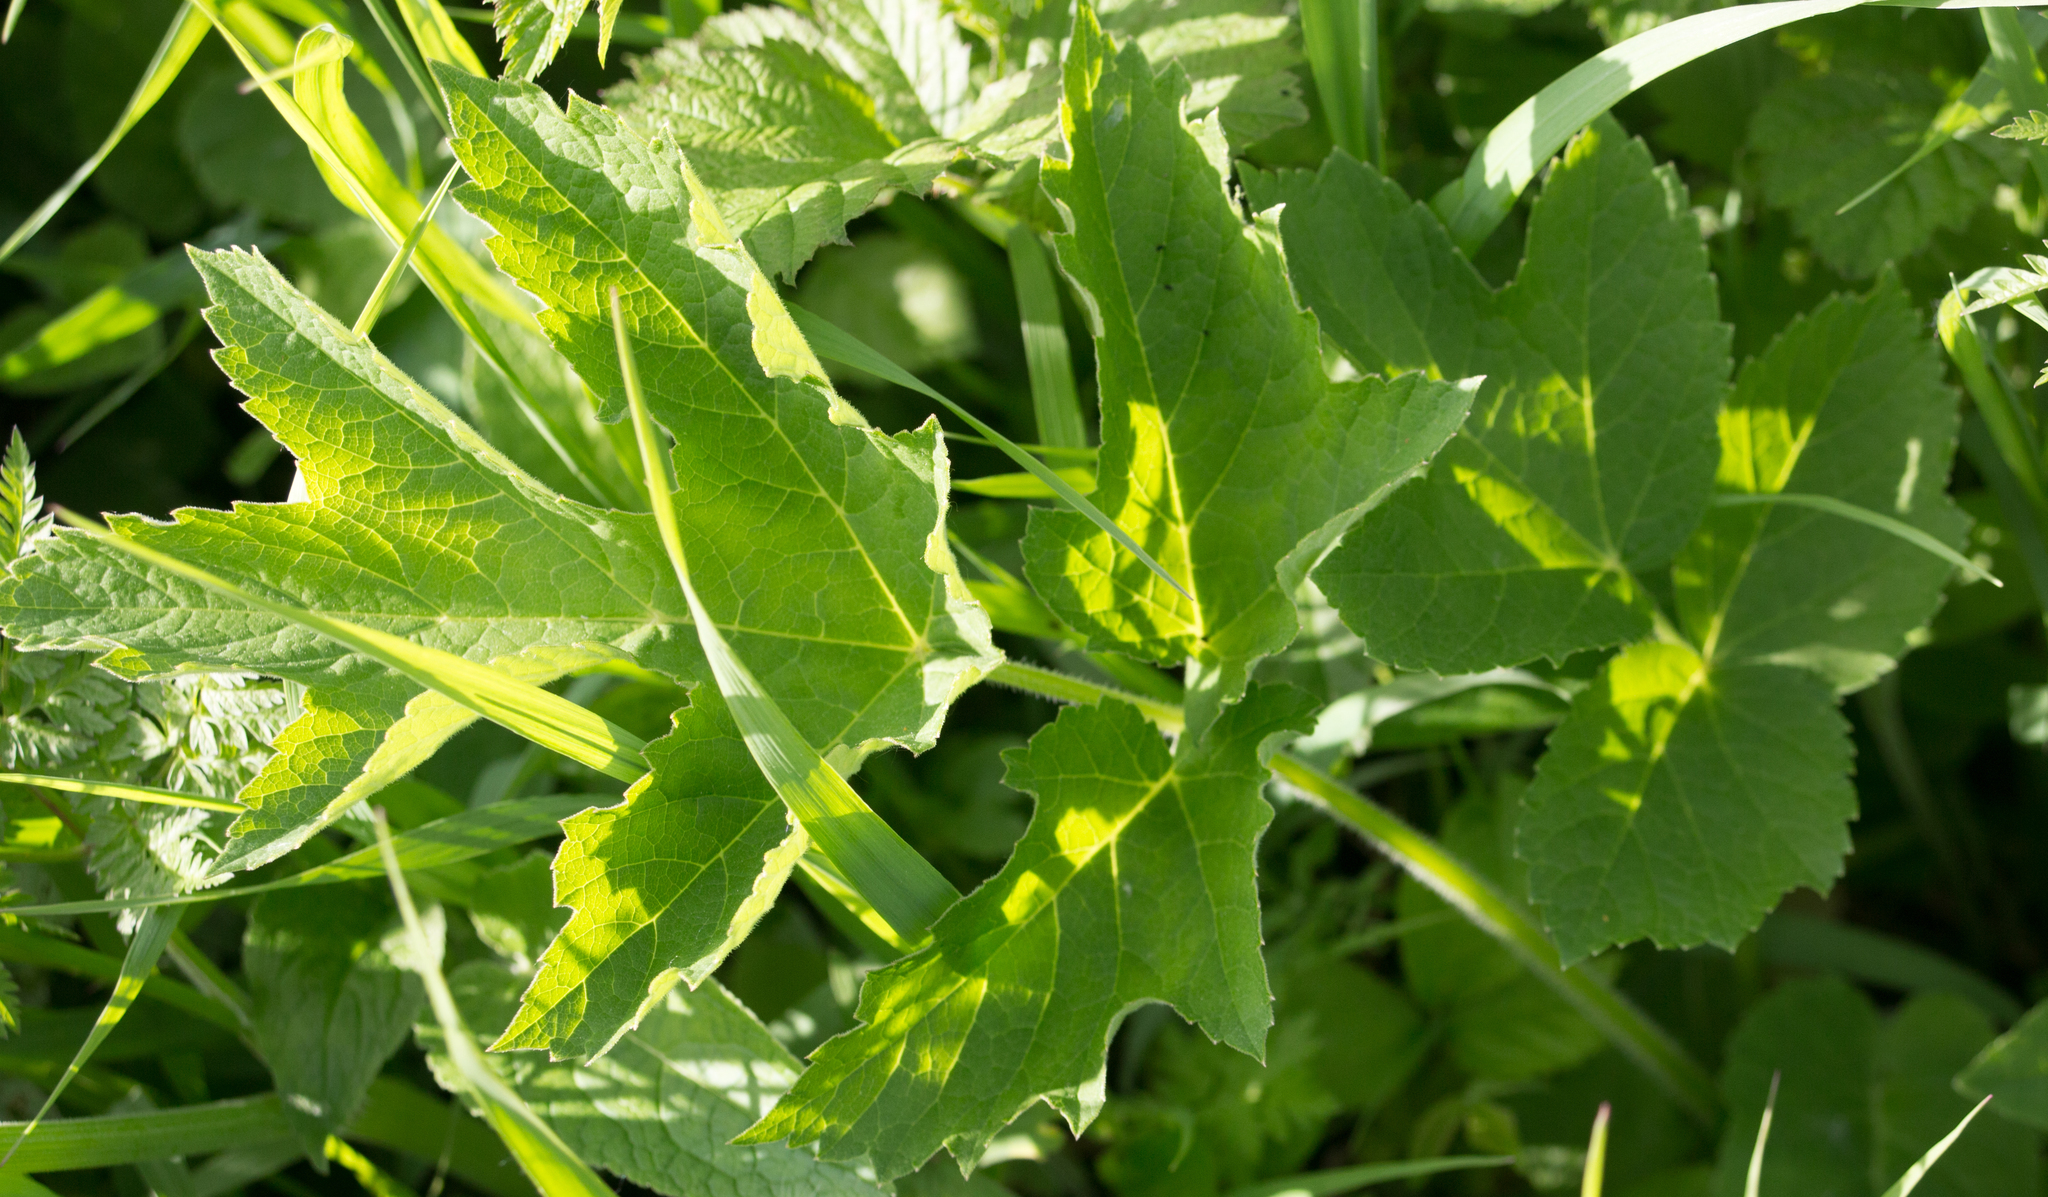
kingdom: Plantae
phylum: Tracheophyta
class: Magnoliopsida
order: Apiales
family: Apiaceae
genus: Heracleum
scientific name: Heracleum sphondylium
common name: Hogweed
